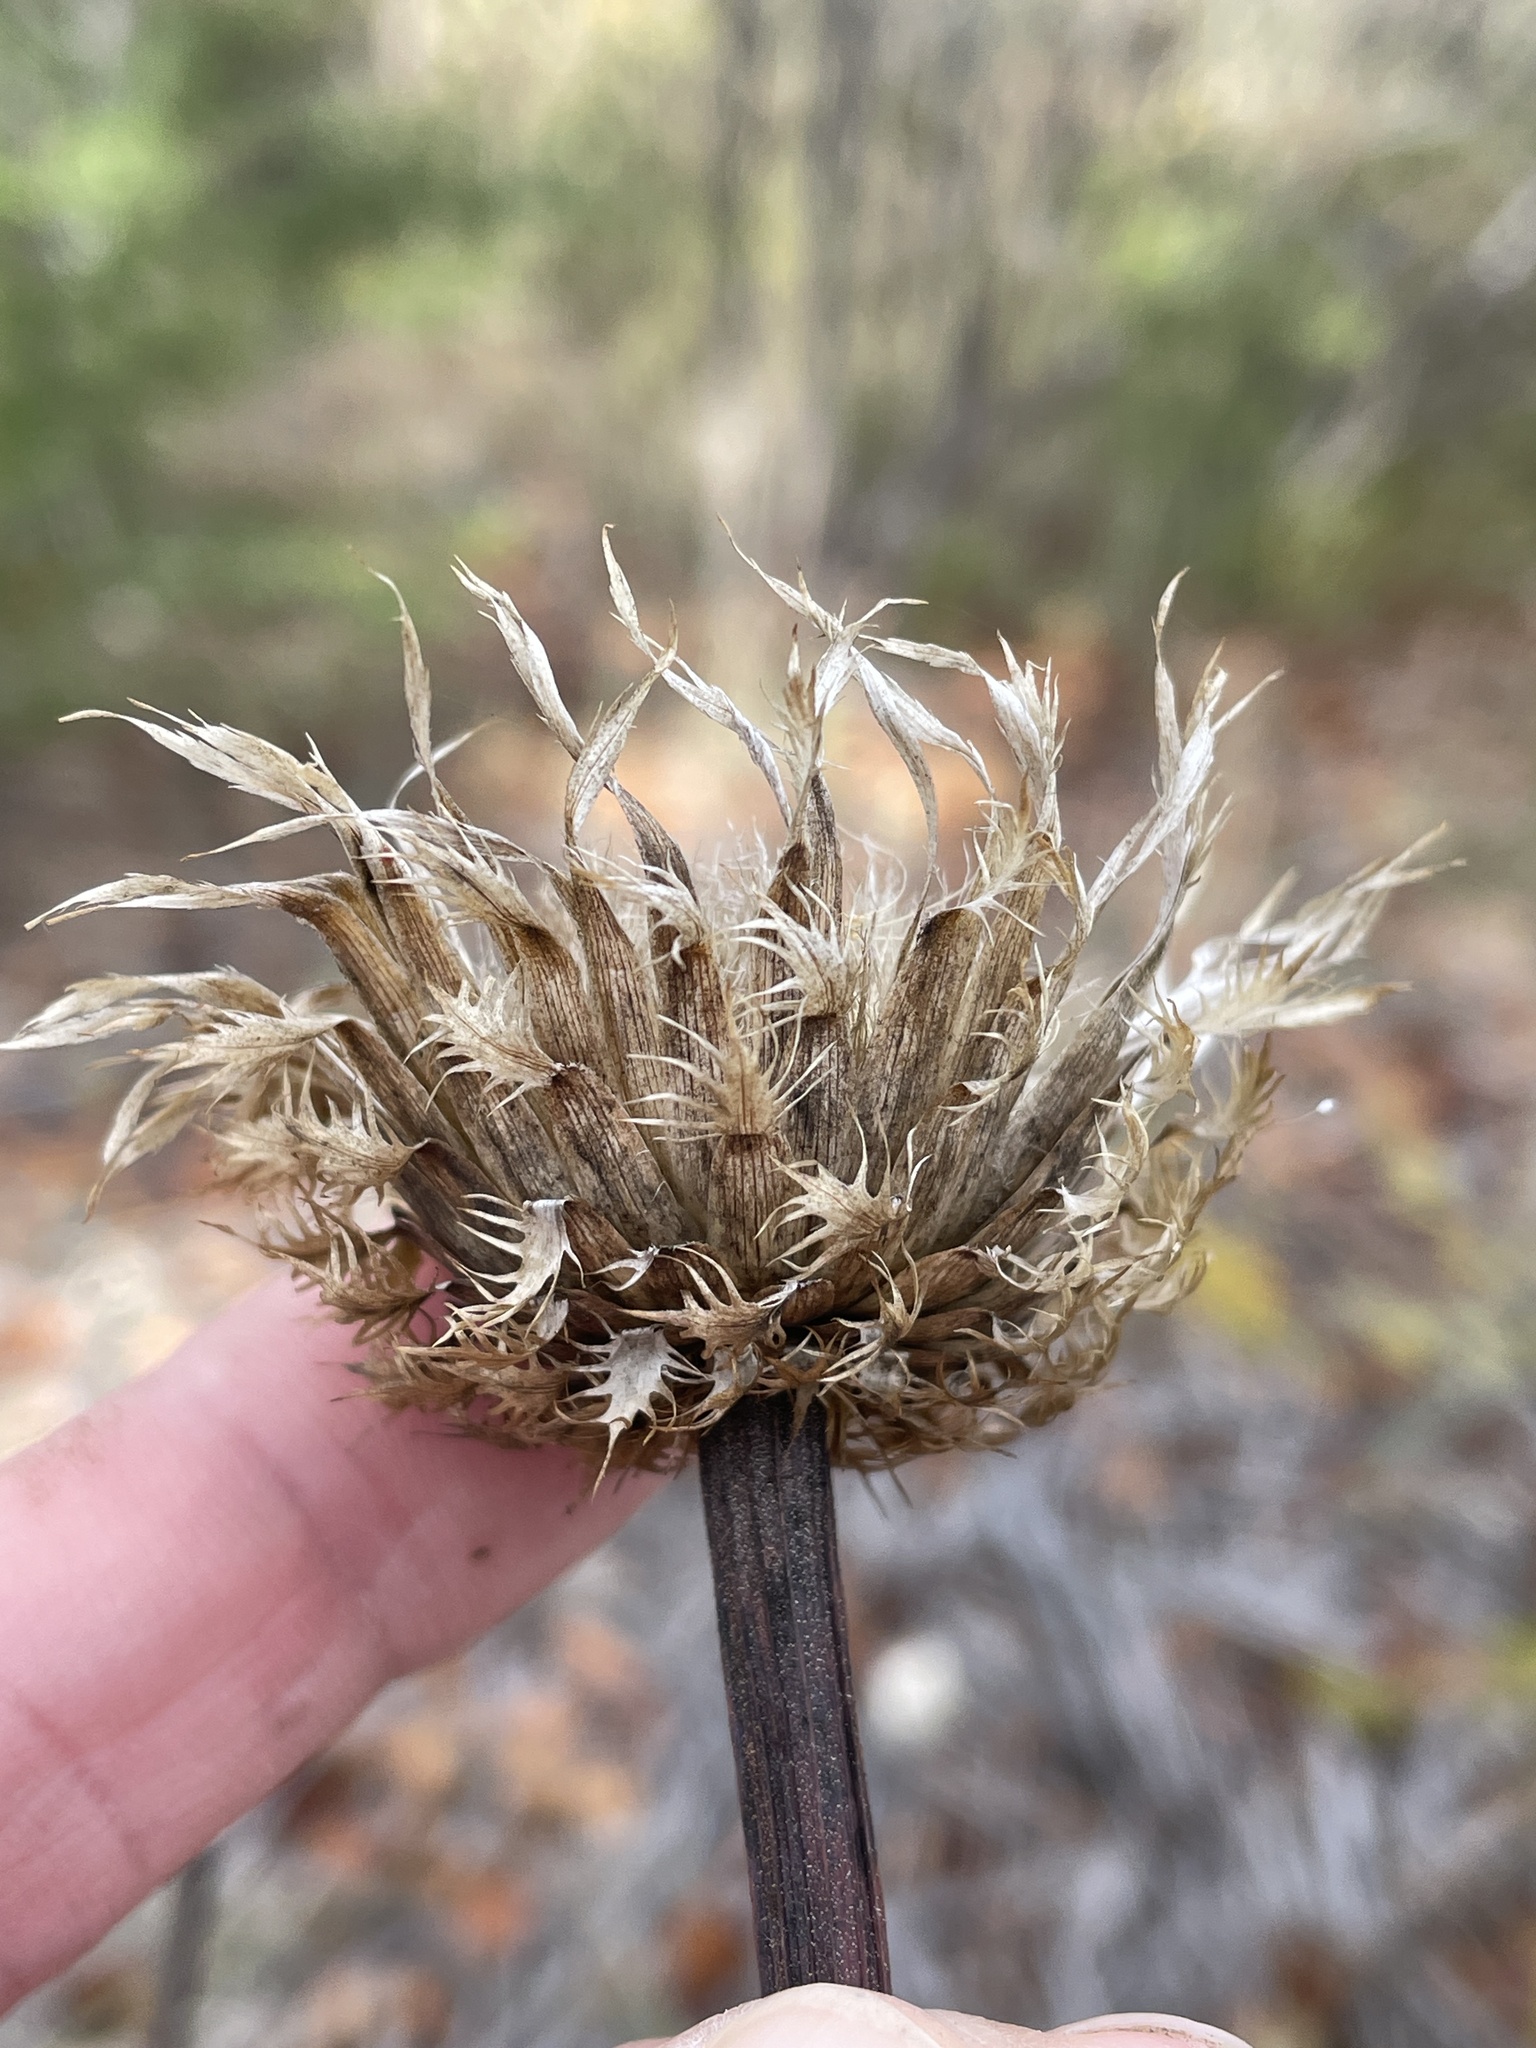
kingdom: Plantae
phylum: Tracheophyta
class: Magnoliopsida
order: Asterales
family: Asteraceae
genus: Plectocephalus
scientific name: Plectocephalus americanus
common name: American basket-flower
